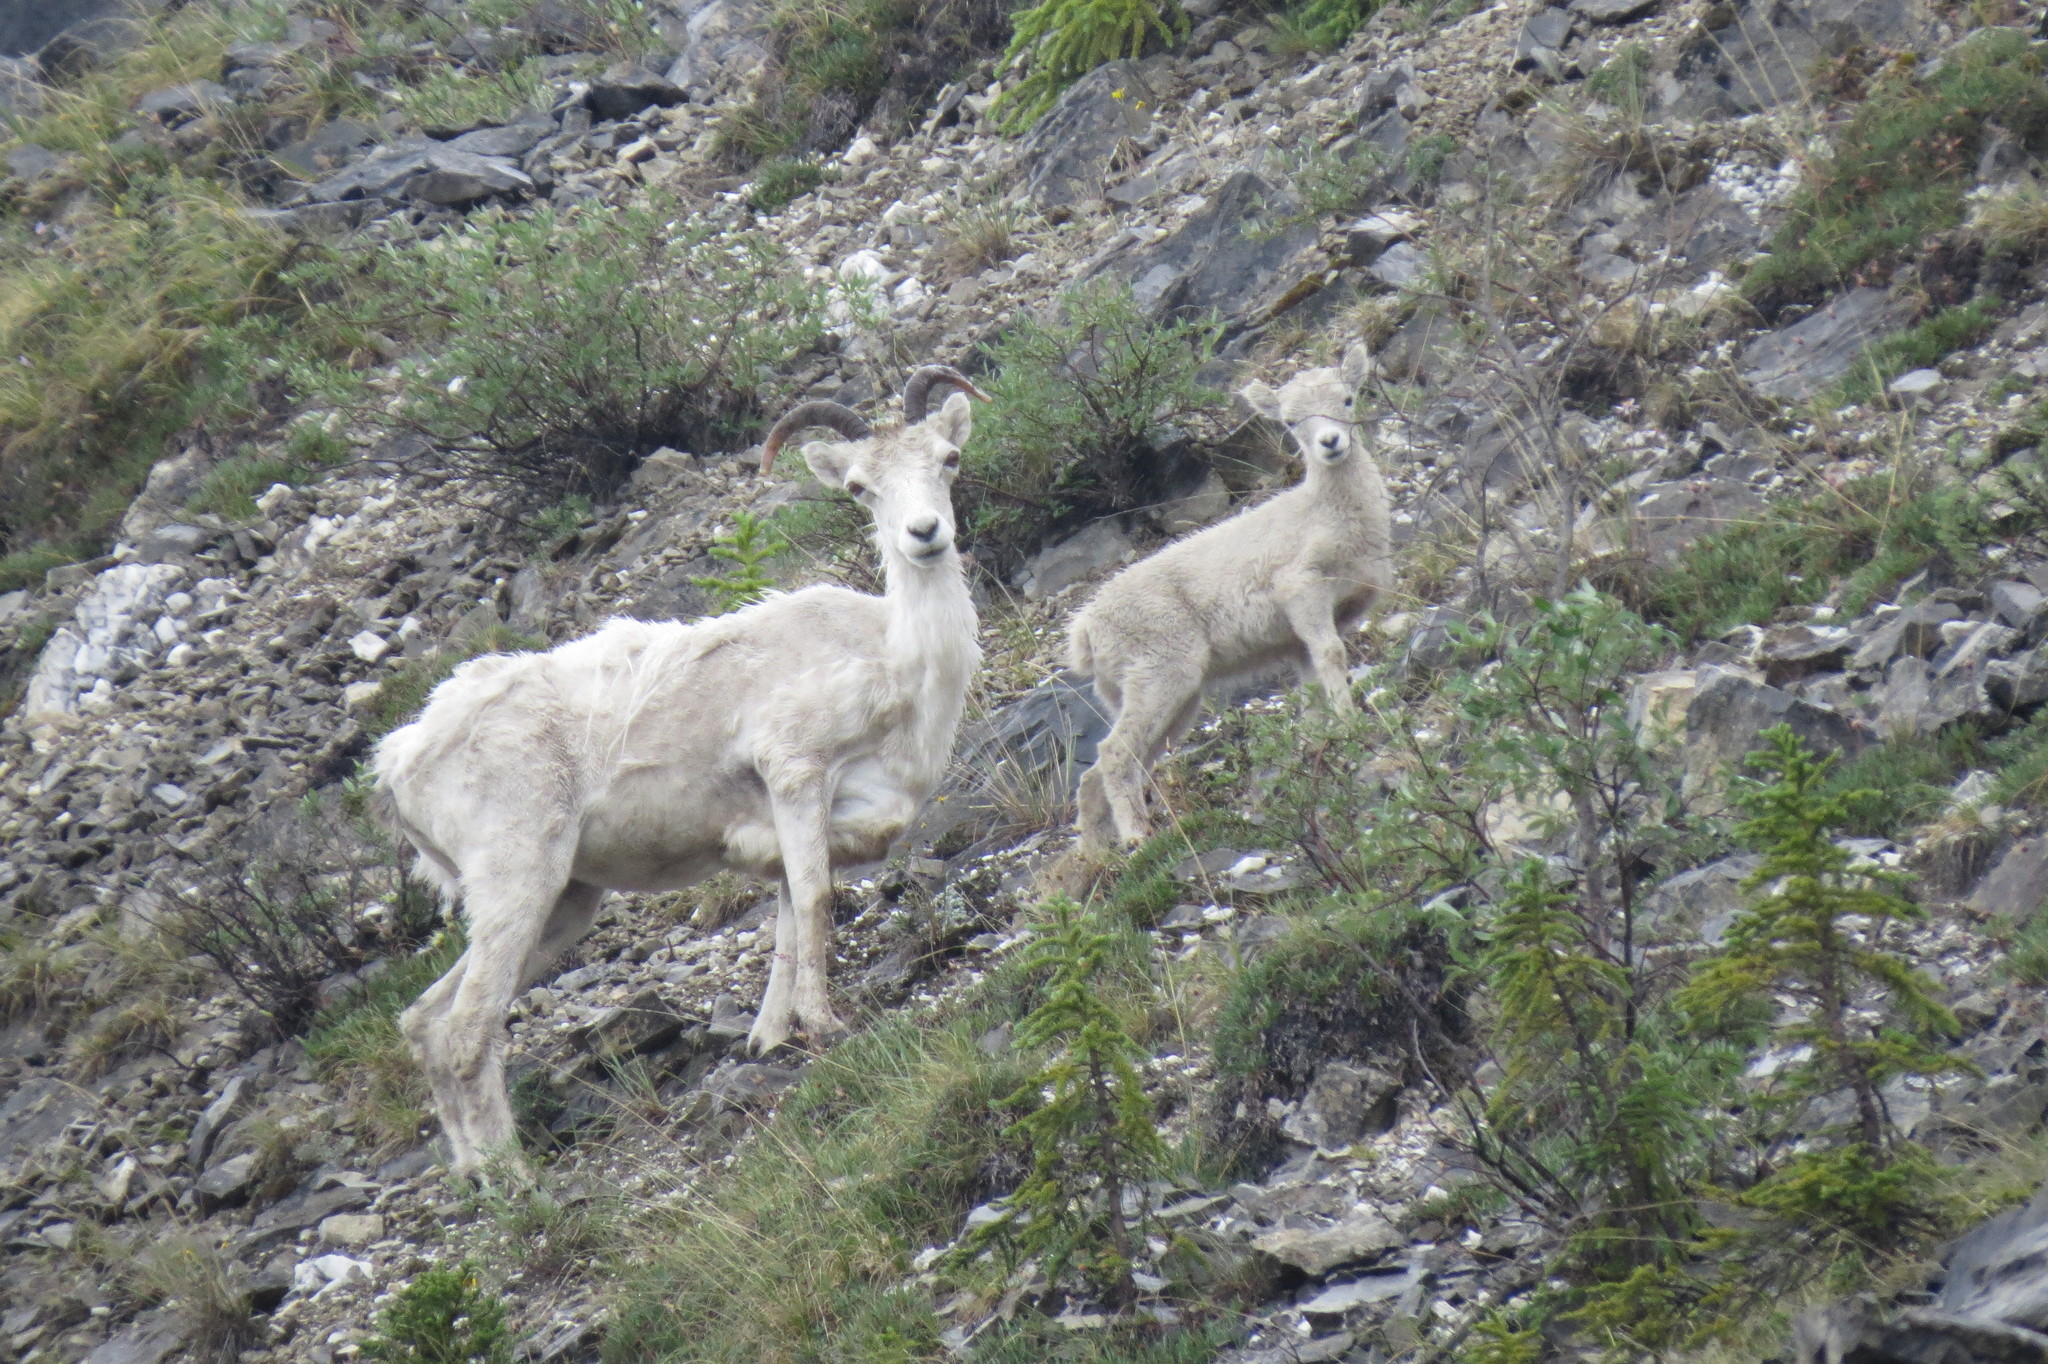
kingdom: Animalia
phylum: Chordata
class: Mammalia
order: Artiodactyla
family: Bovidae
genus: Ovis
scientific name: Ovis dalli
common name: Dall's sheep
